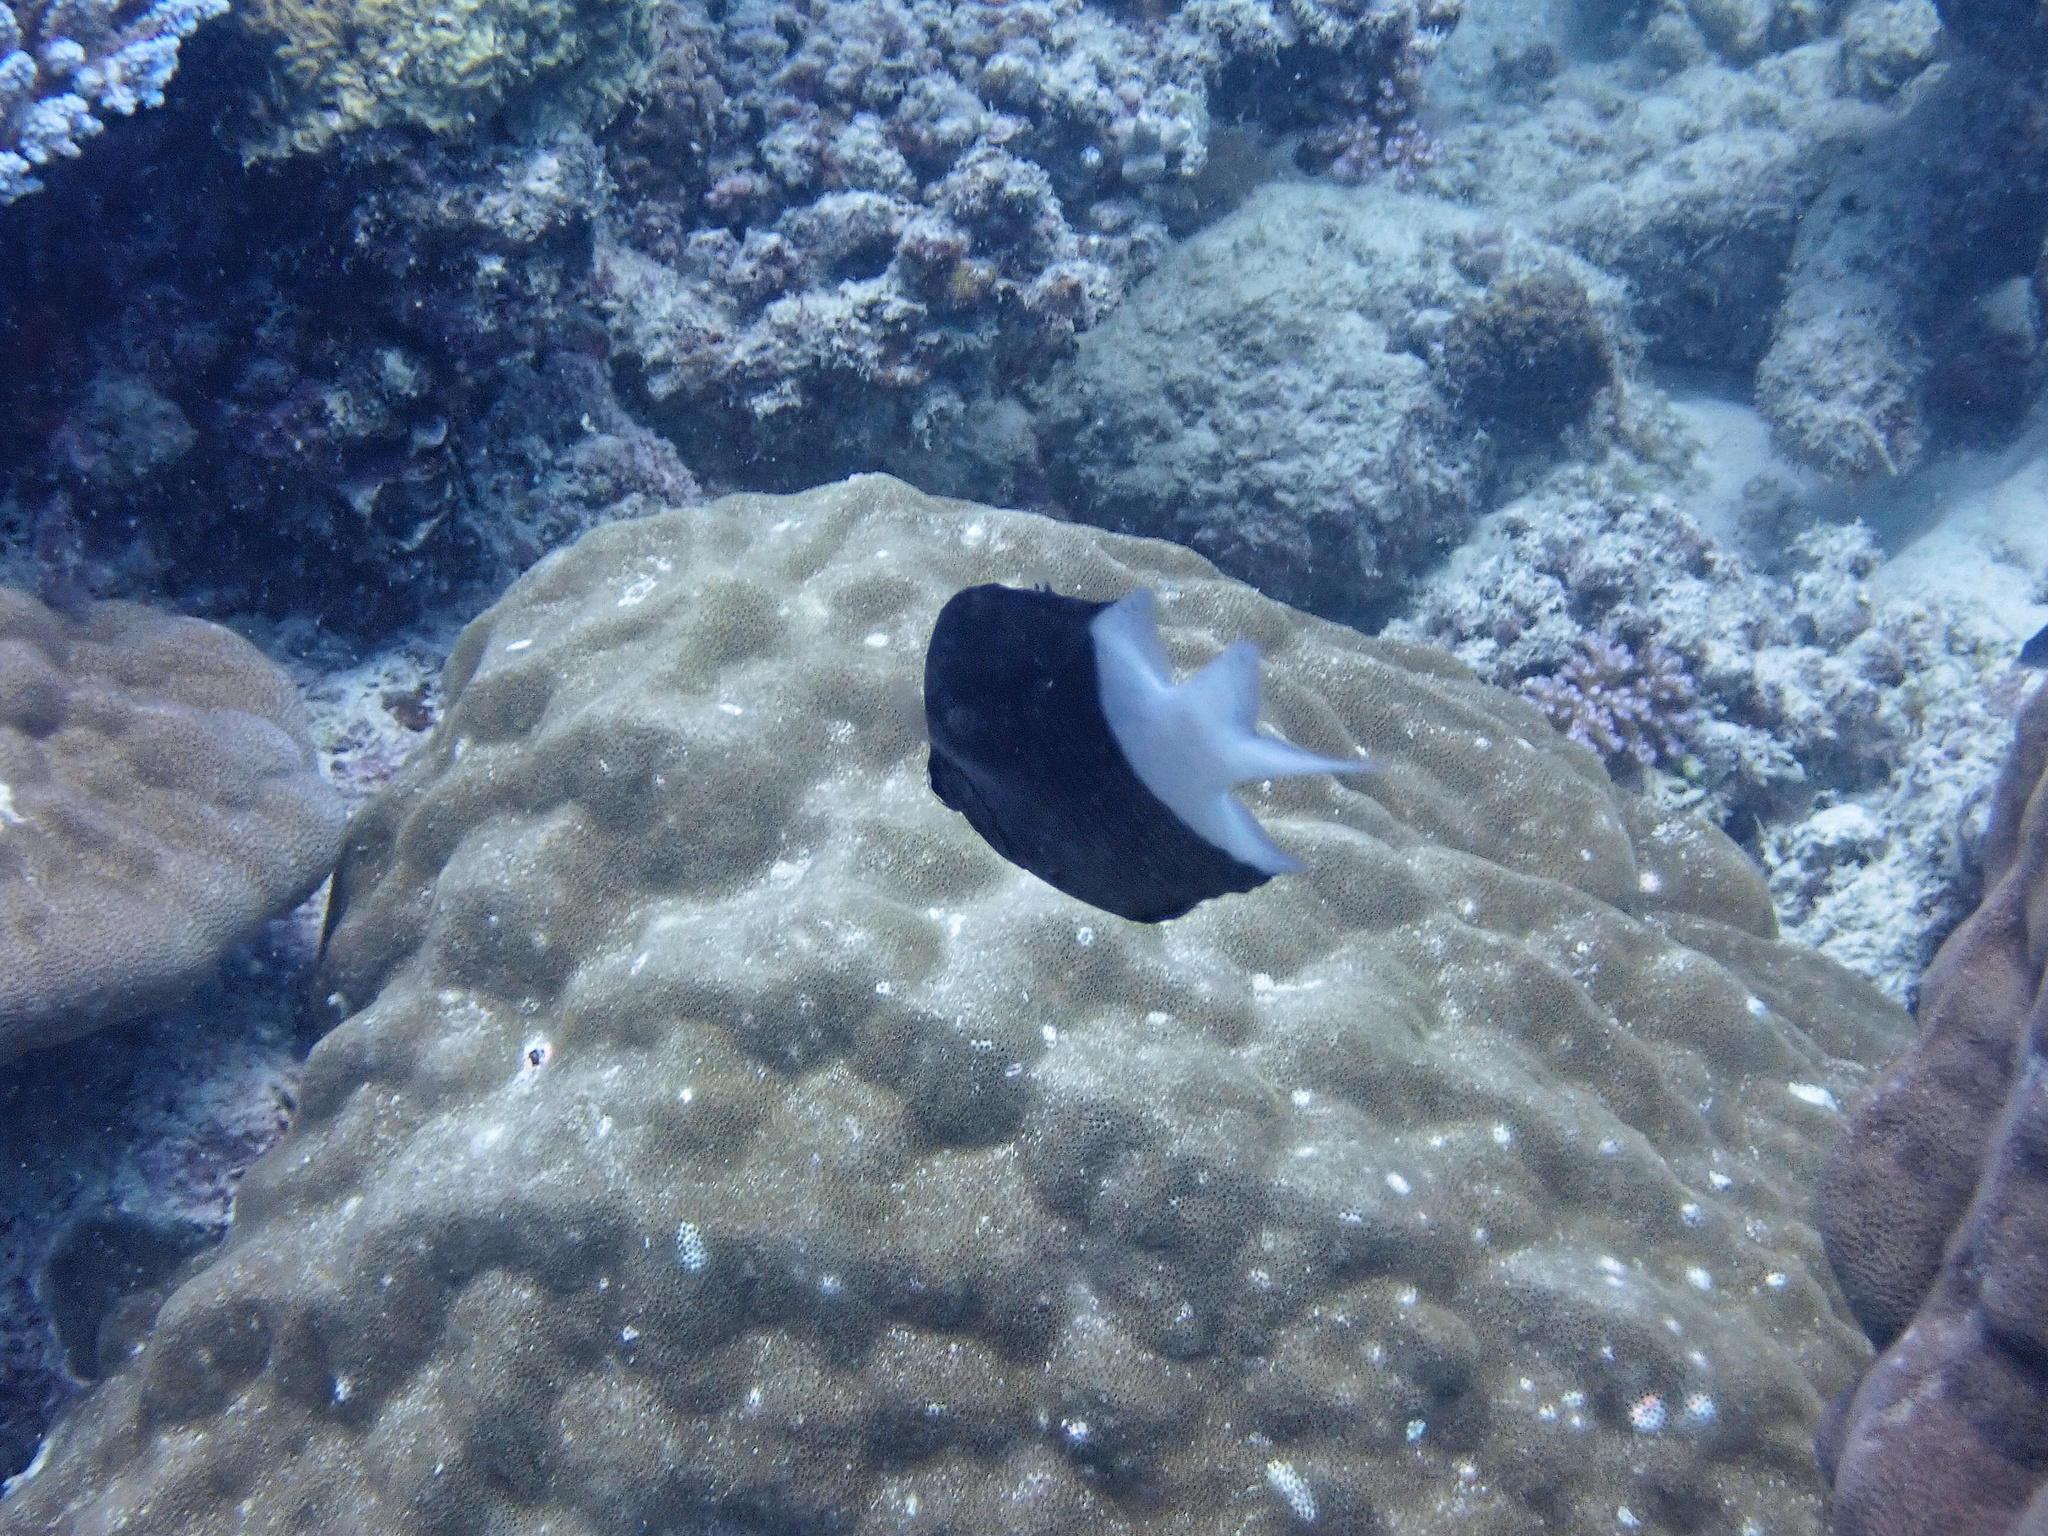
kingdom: Animalia
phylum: Chordata
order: Perciformes
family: Pomacentridae
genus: Acanthochromis
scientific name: Acanthochromis polyacanthus
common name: Spiny chromis
